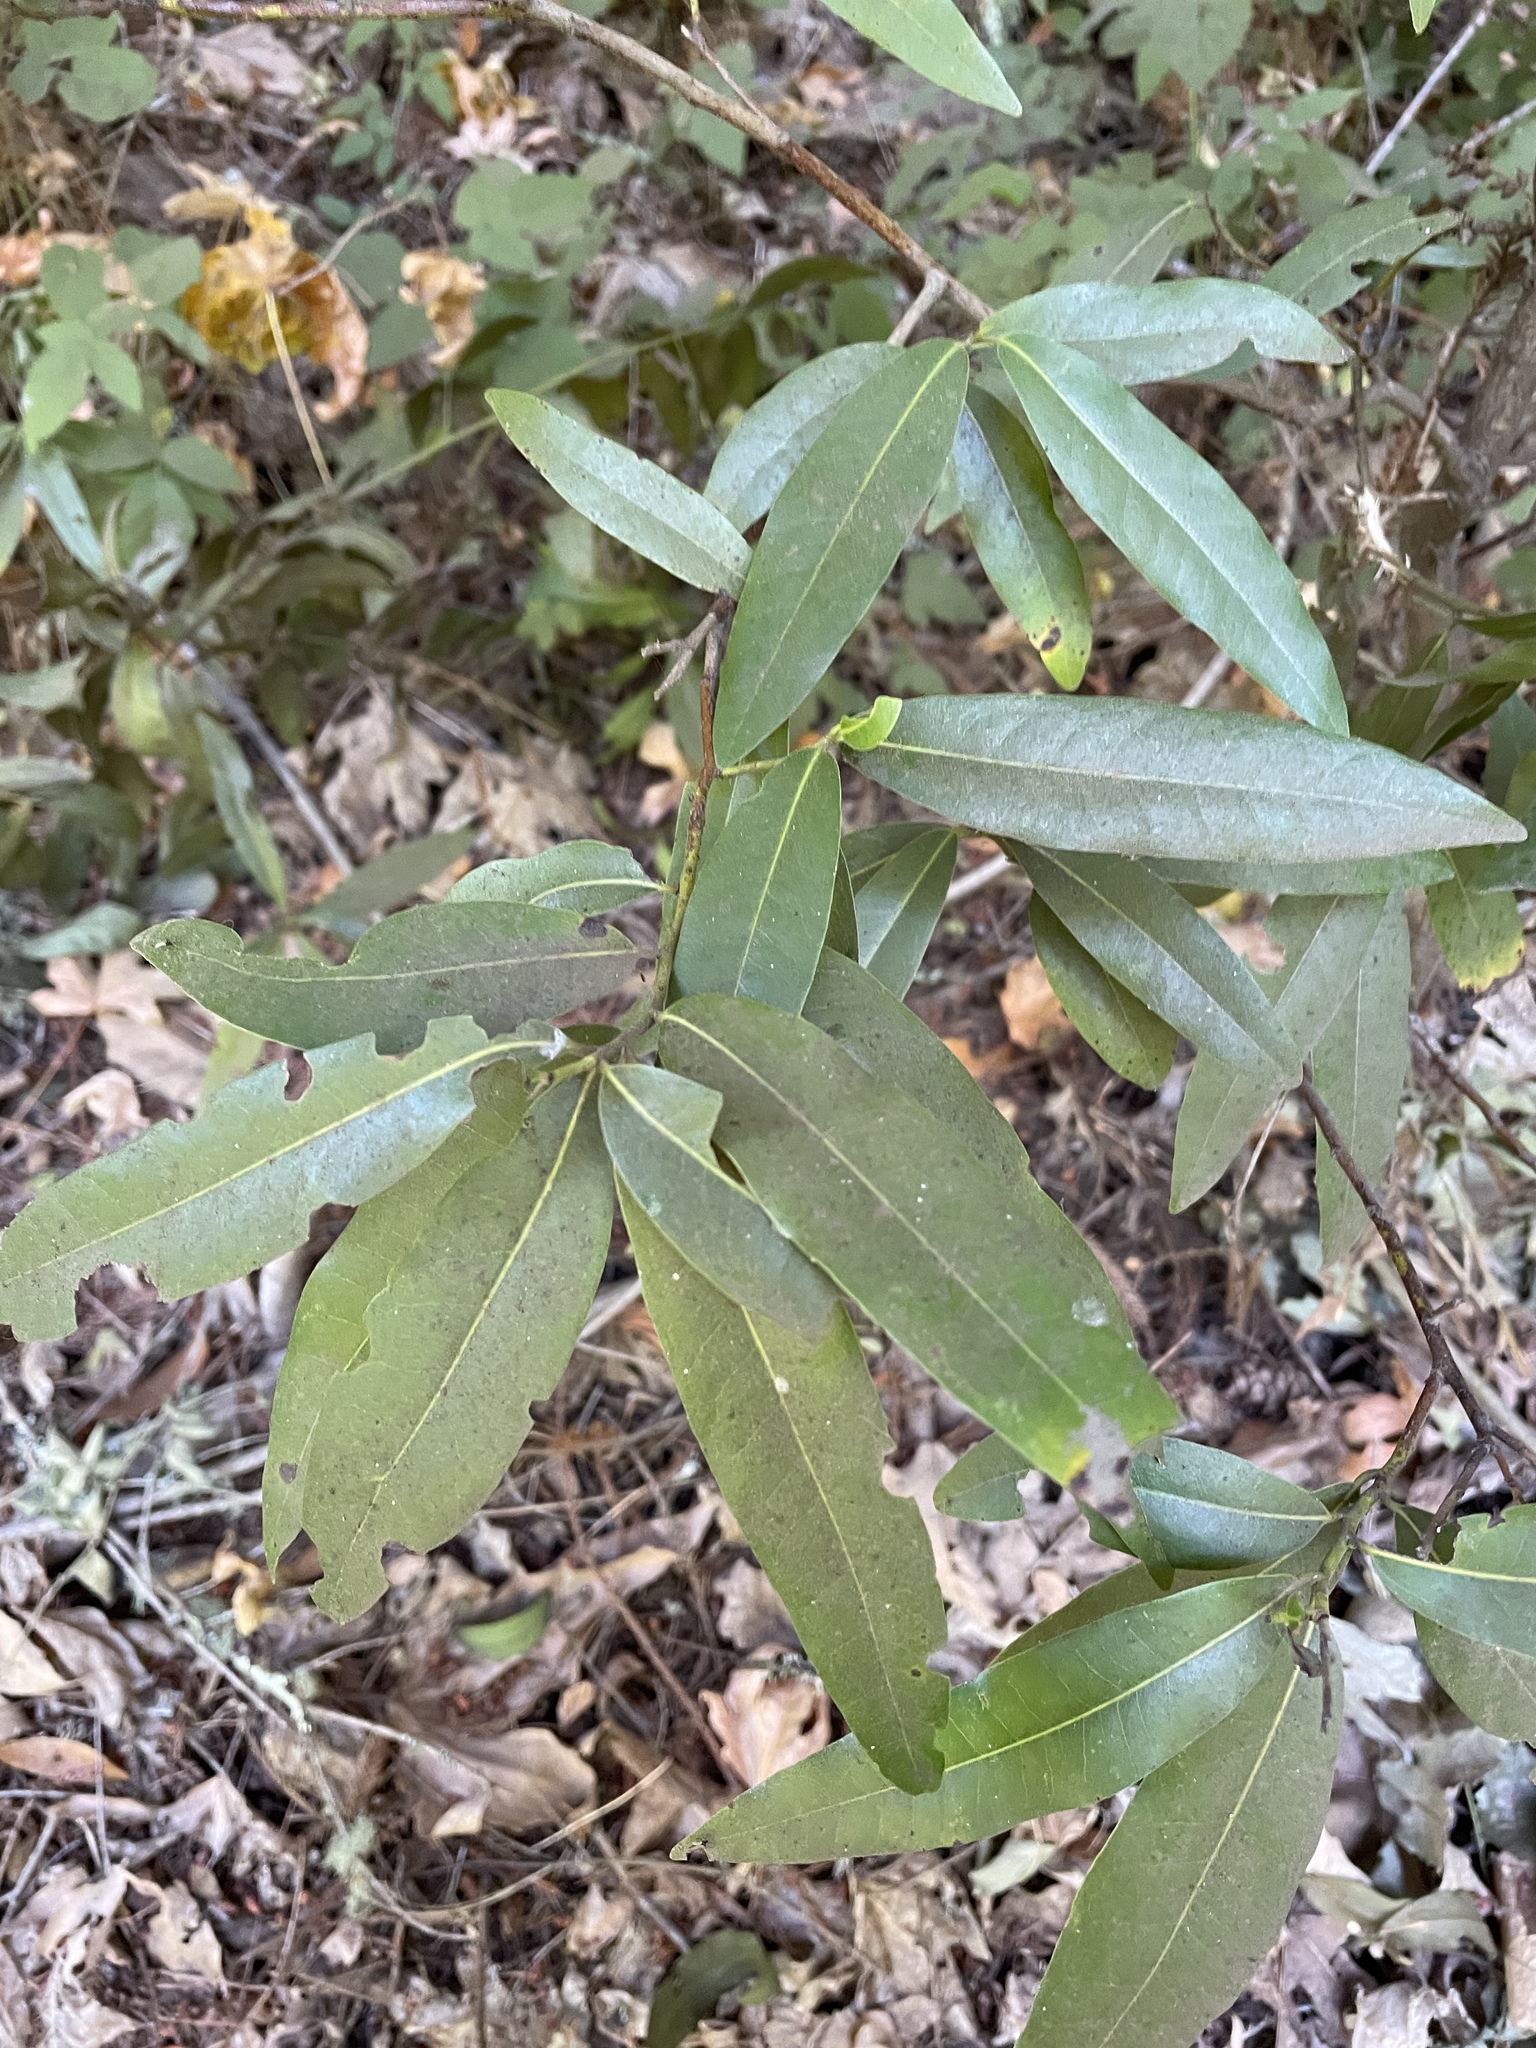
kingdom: Plantae
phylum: Tracheophyta
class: Magnoliopsida
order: Laurales
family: Lauraceae
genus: Umbellularia
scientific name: Umbellularia californica
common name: California bay
